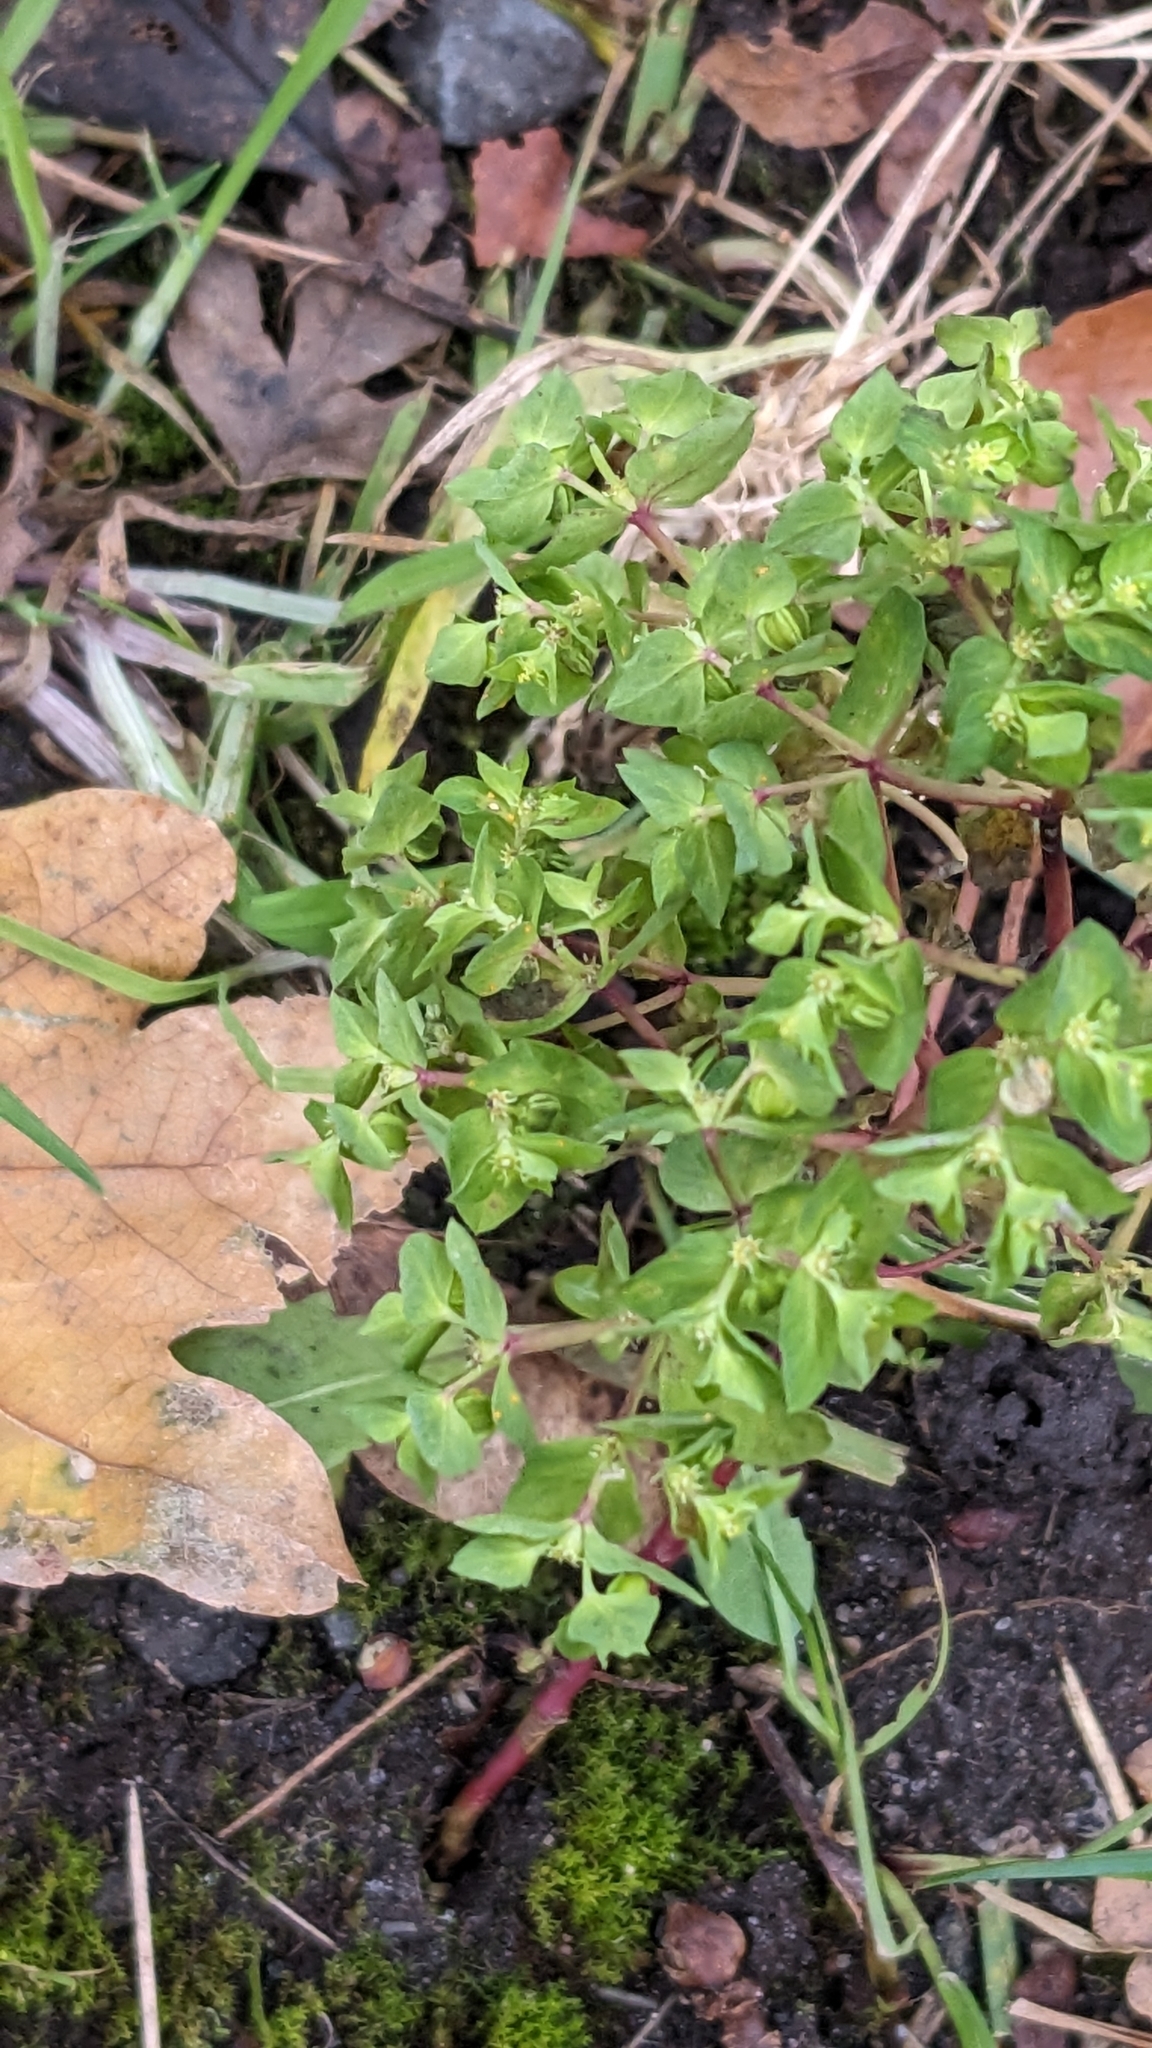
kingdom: Plantae
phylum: Tracheophyta
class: Magnoliopsida
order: Malpighiales
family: Euphorbiaceae
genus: Euphorbia
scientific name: Euphorbia peplus
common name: Petty spurge
